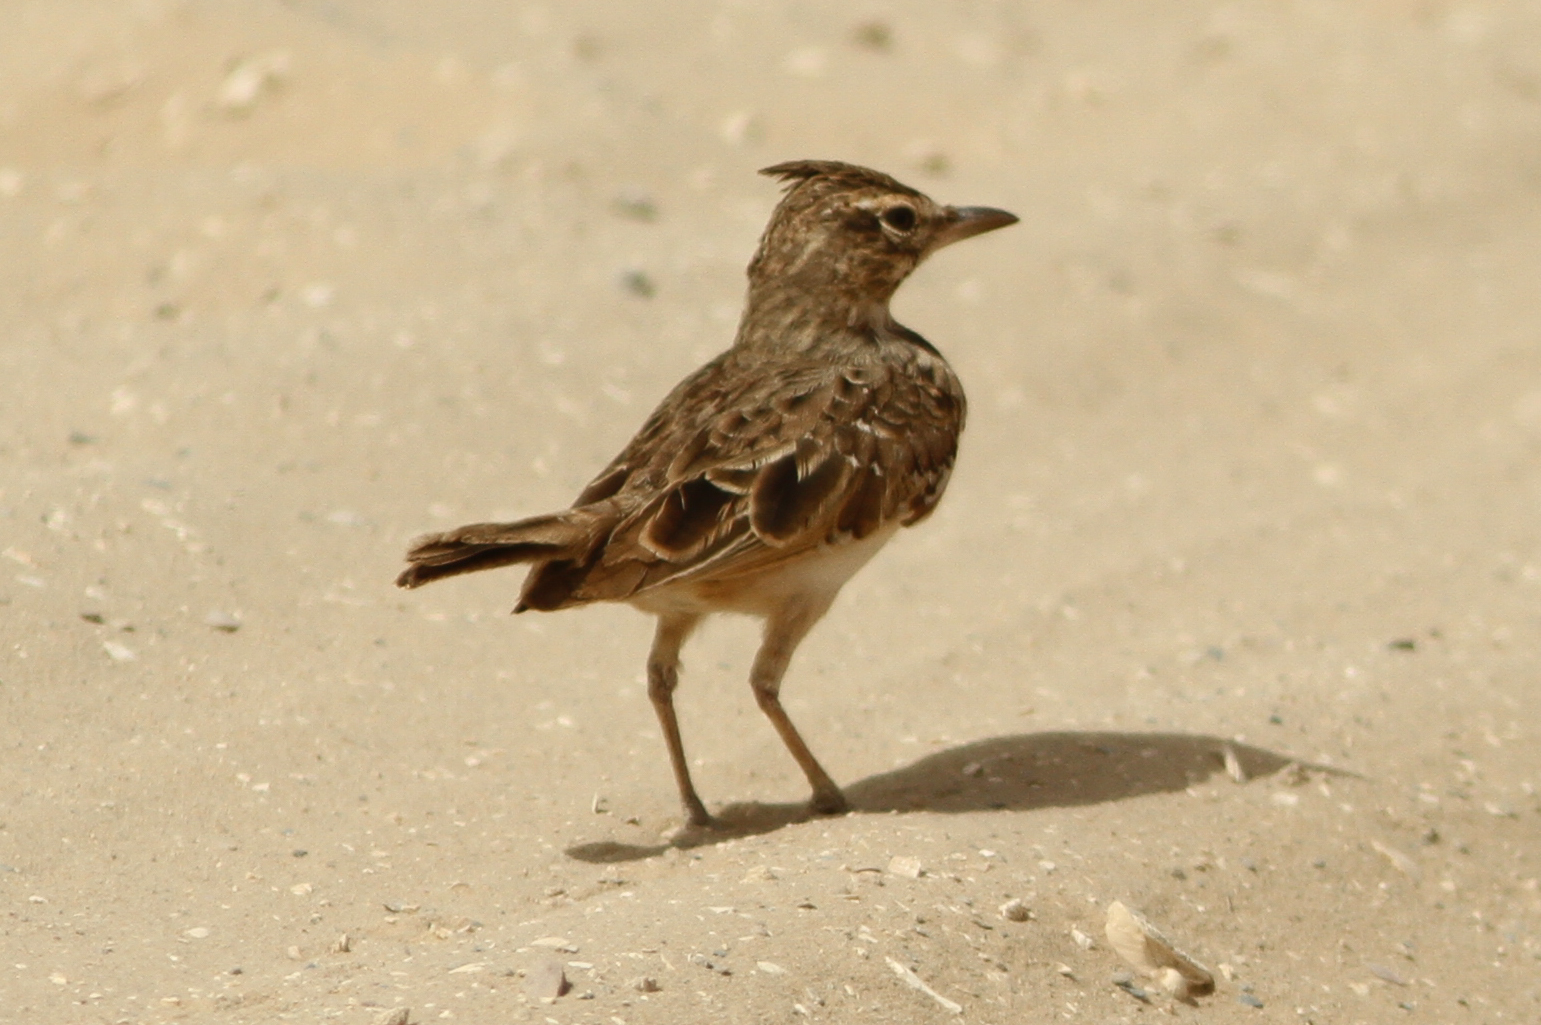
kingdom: Animalia
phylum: Chordata
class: Aves
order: Passeriformes
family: Alaudidae
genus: Galerida
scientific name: Galerida cristata
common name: Crested lark
